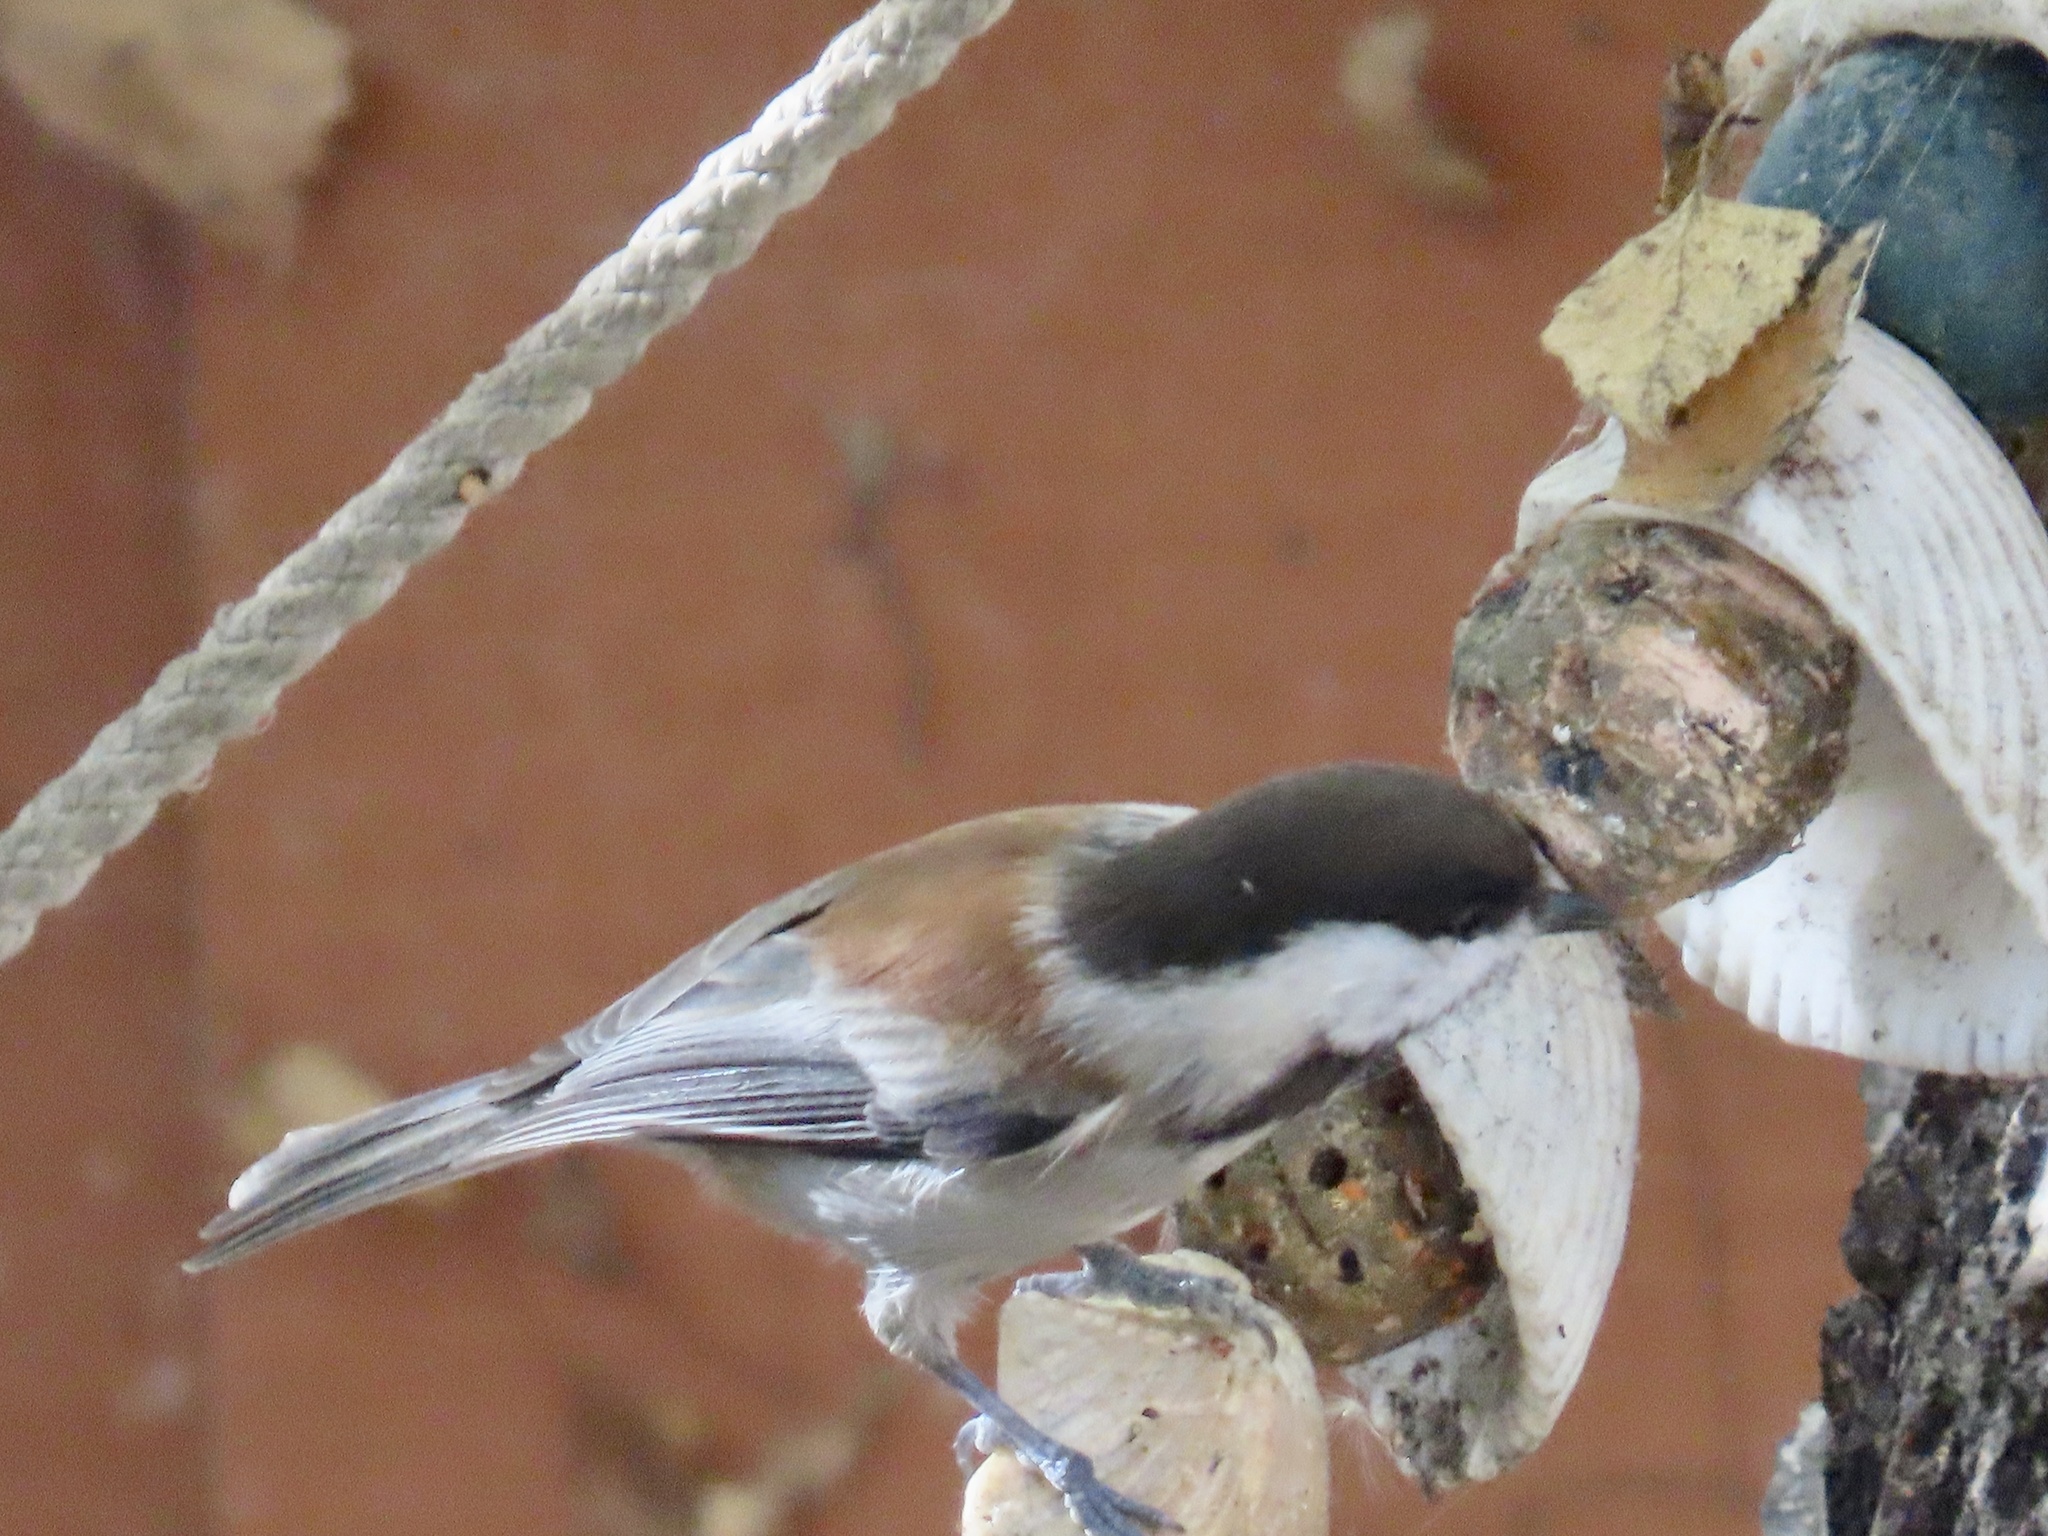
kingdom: Animalia
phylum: Chordata
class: Aves
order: Passeriformes
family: Paridae
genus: Poecile
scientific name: Poecile rufescens
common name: Chestnut-backed chickadee
